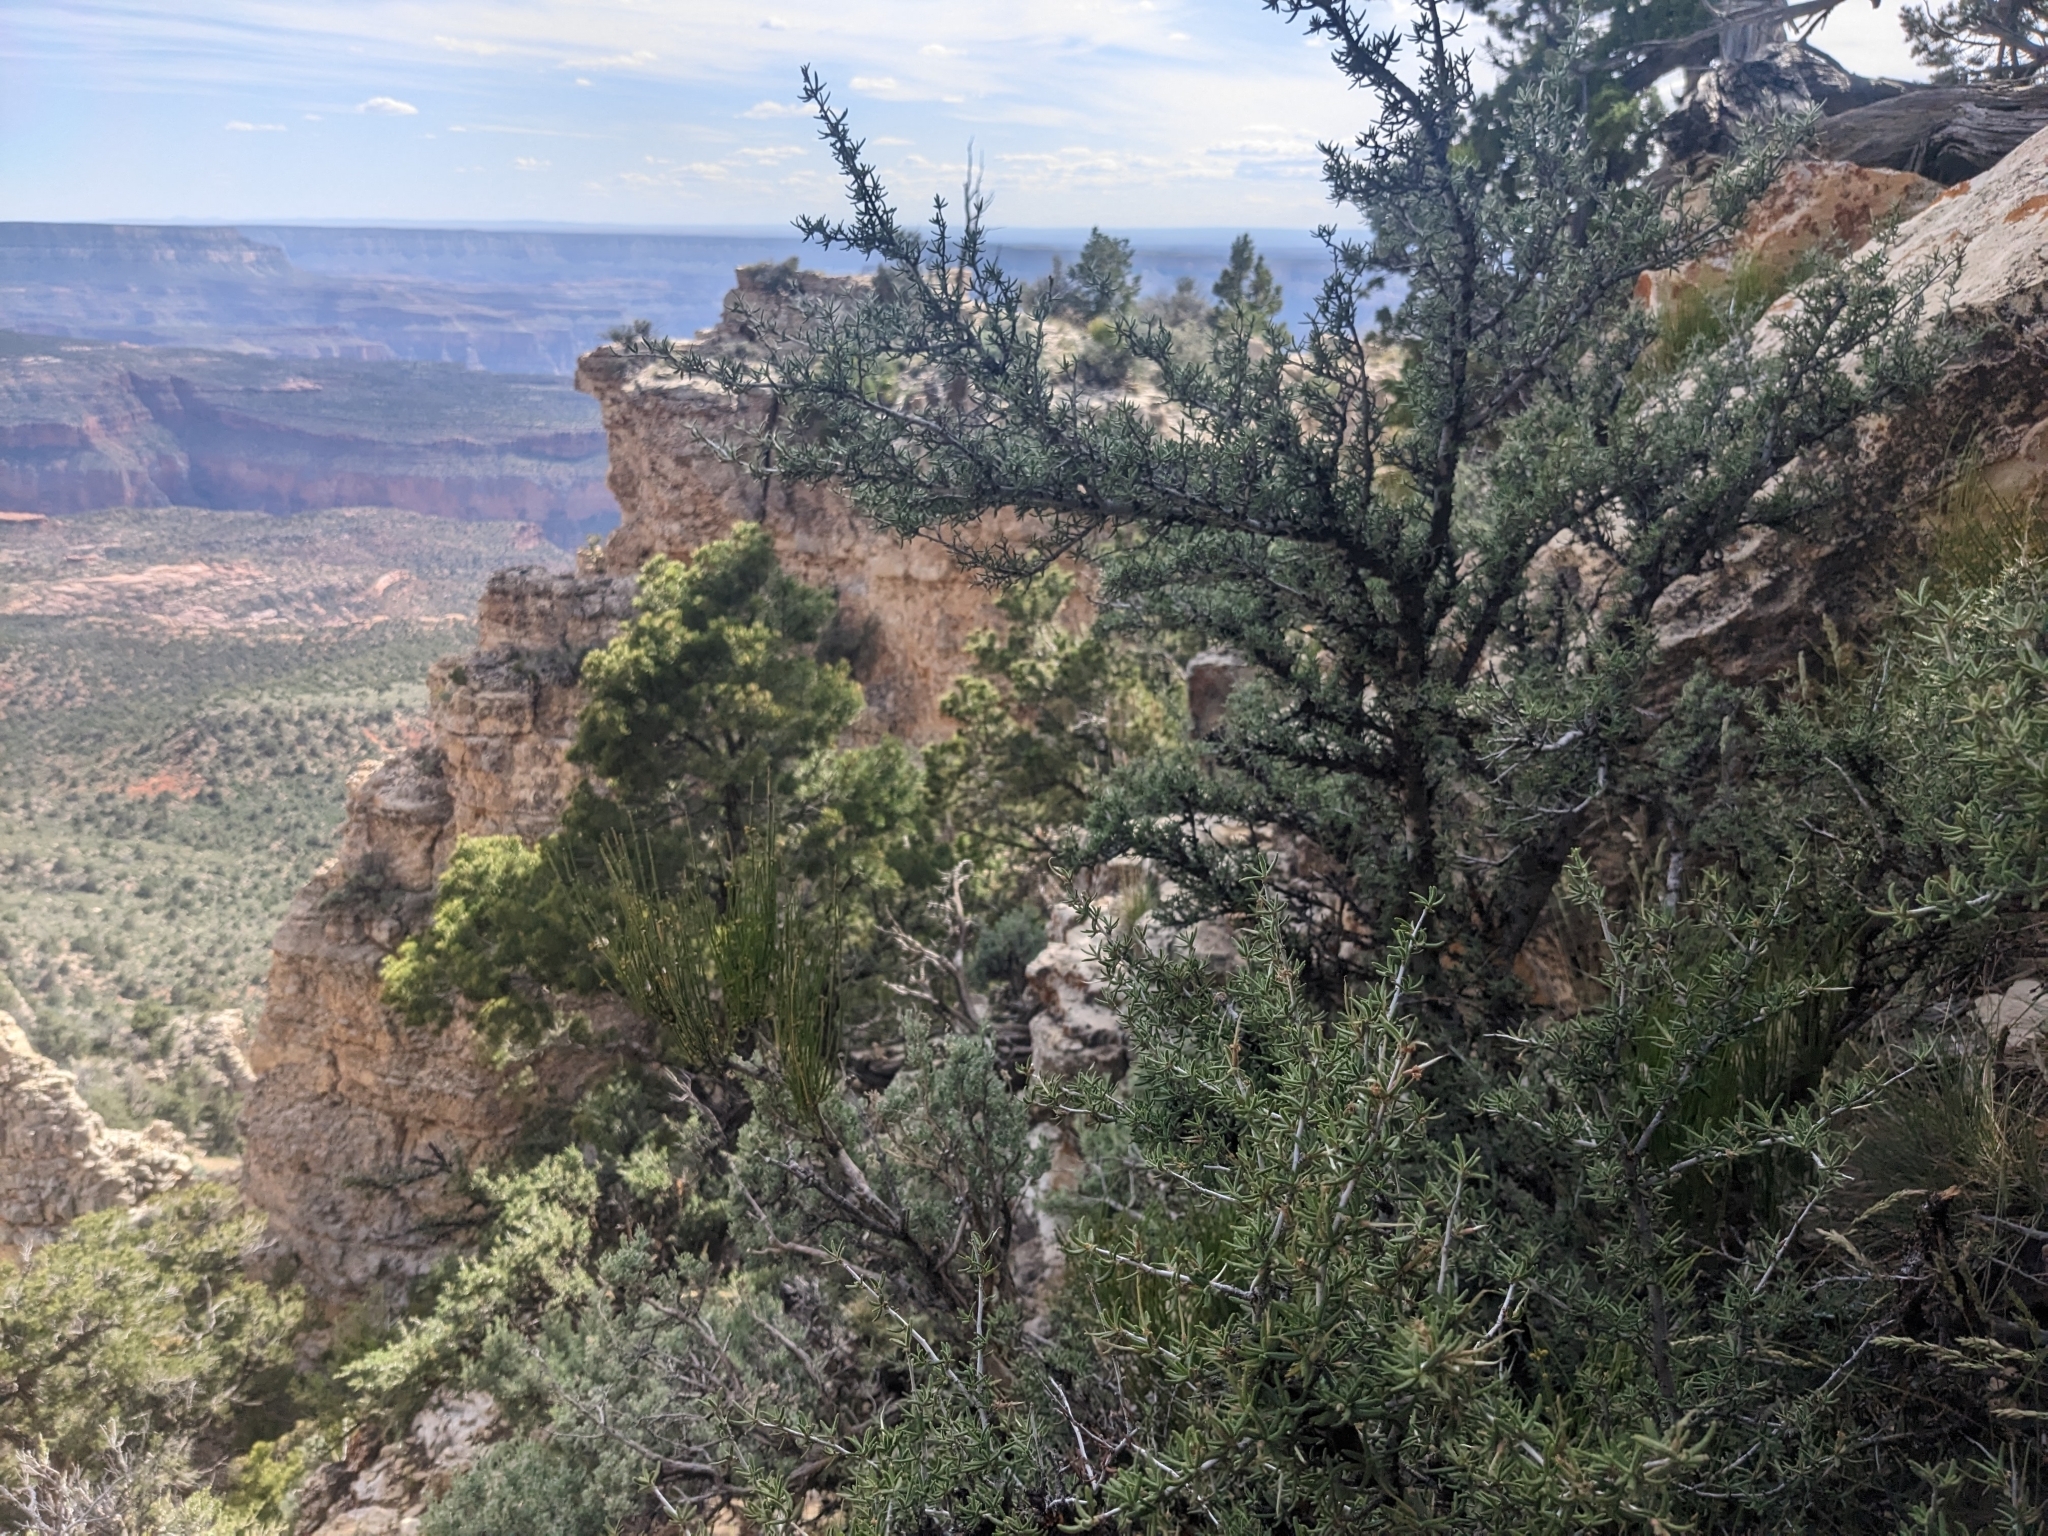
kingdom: Plantae
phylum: Tracheophyta
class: Magnoliopsida
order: Rosales
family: Rosaceae
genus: Cercocarpus
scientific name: Cercocarpus intricatus
